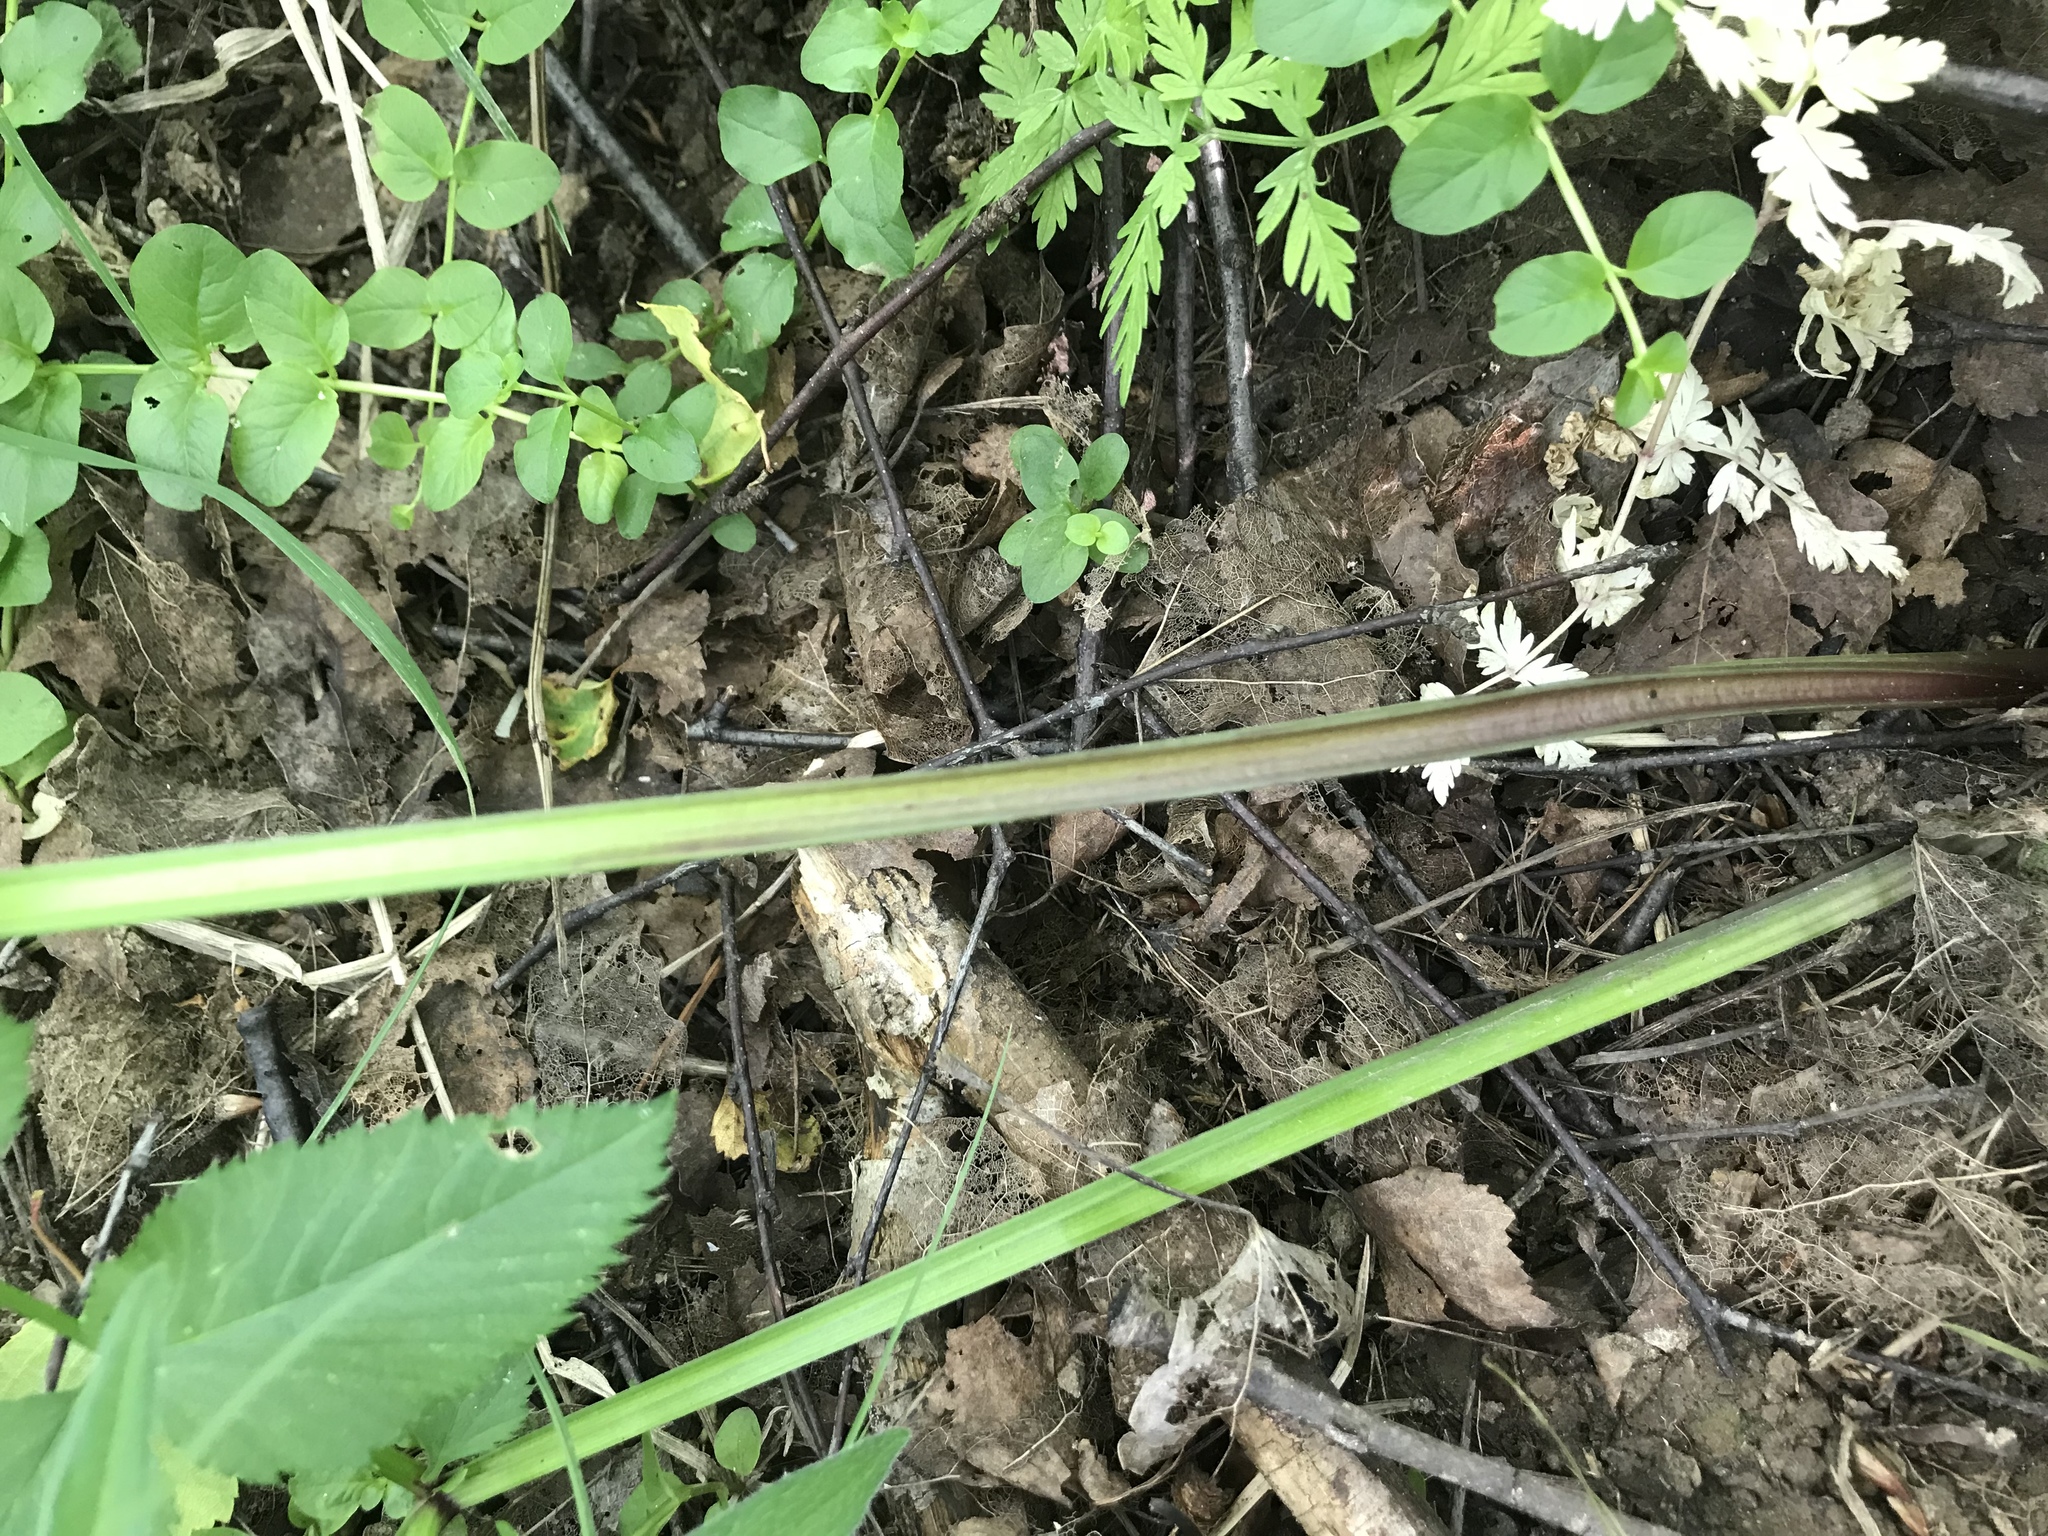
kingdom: Plantae
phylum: Tracheophyta
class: Magnoliopsida
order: Apiales
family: Apiaceae
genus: Angelica
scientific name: Angelica sylvestris
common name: Wild angelica
